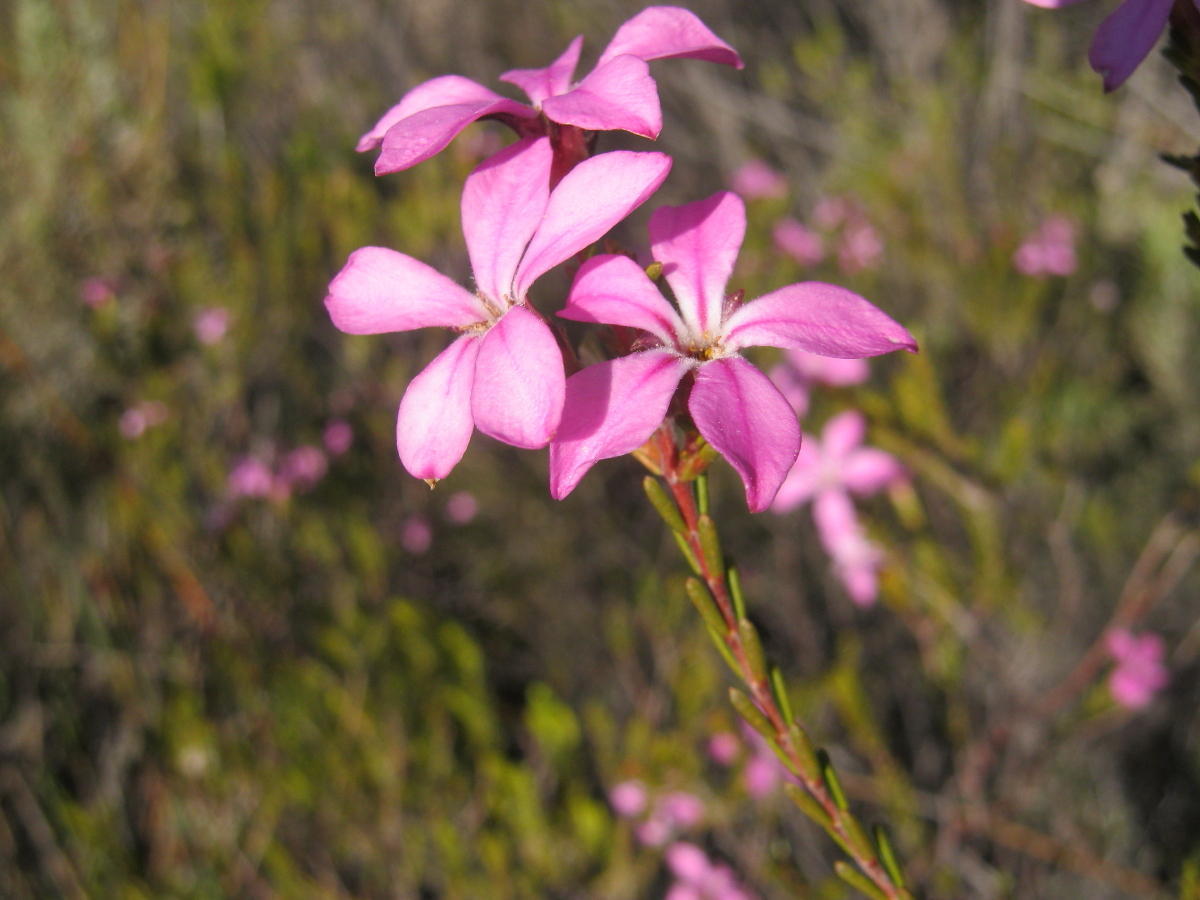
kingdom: Plantae
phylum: Tracheophyta
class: Magnoliopsida
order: Sapindales
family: Rutaceae
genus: Acmadenia
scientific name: Acmadenia sheilae
